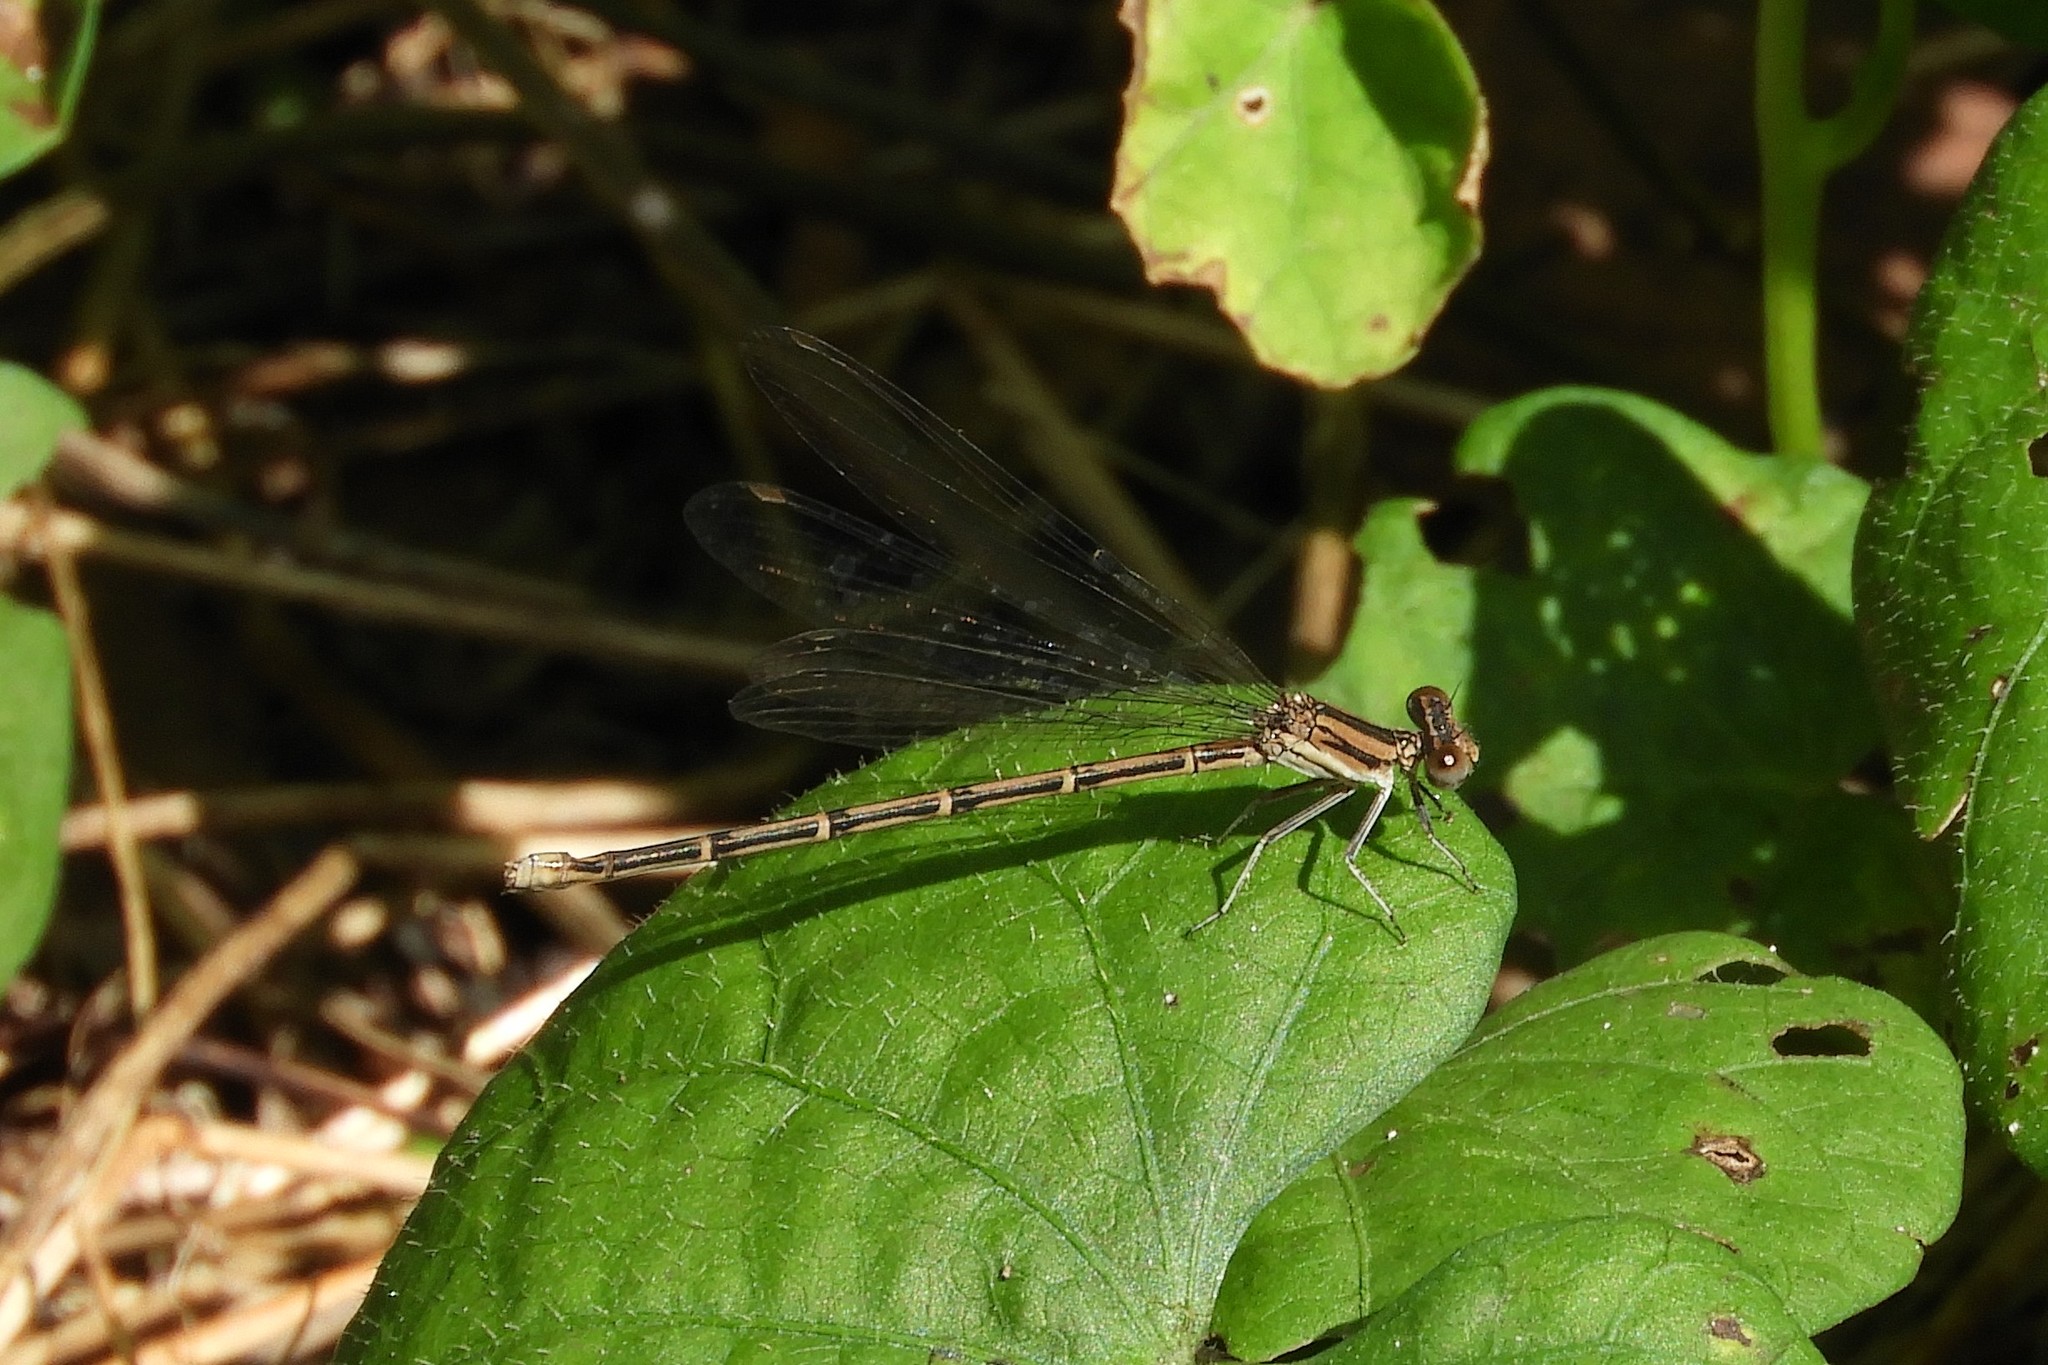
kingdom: Animalia
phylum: Arthropoda
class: Insecta
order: Odonata
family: Coenagrionidae
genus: Argia
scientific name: Argia fumipennis
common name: Variable dancer
